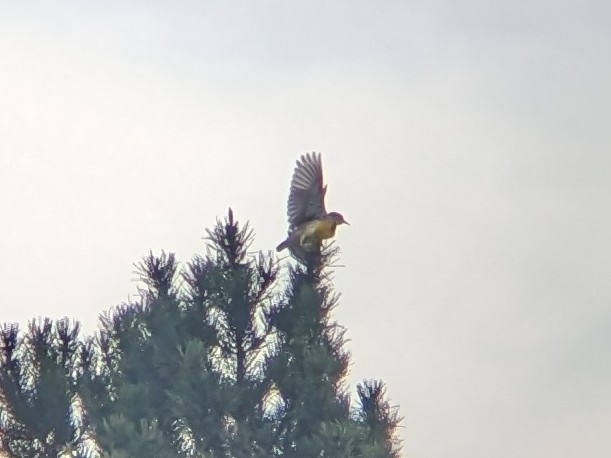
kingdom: Animalia
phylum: Chordata
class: Aves
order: Passeriformes
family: Icteridae
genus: Sturnella
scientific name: Sturnella neglecta
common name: Western meadowlark
